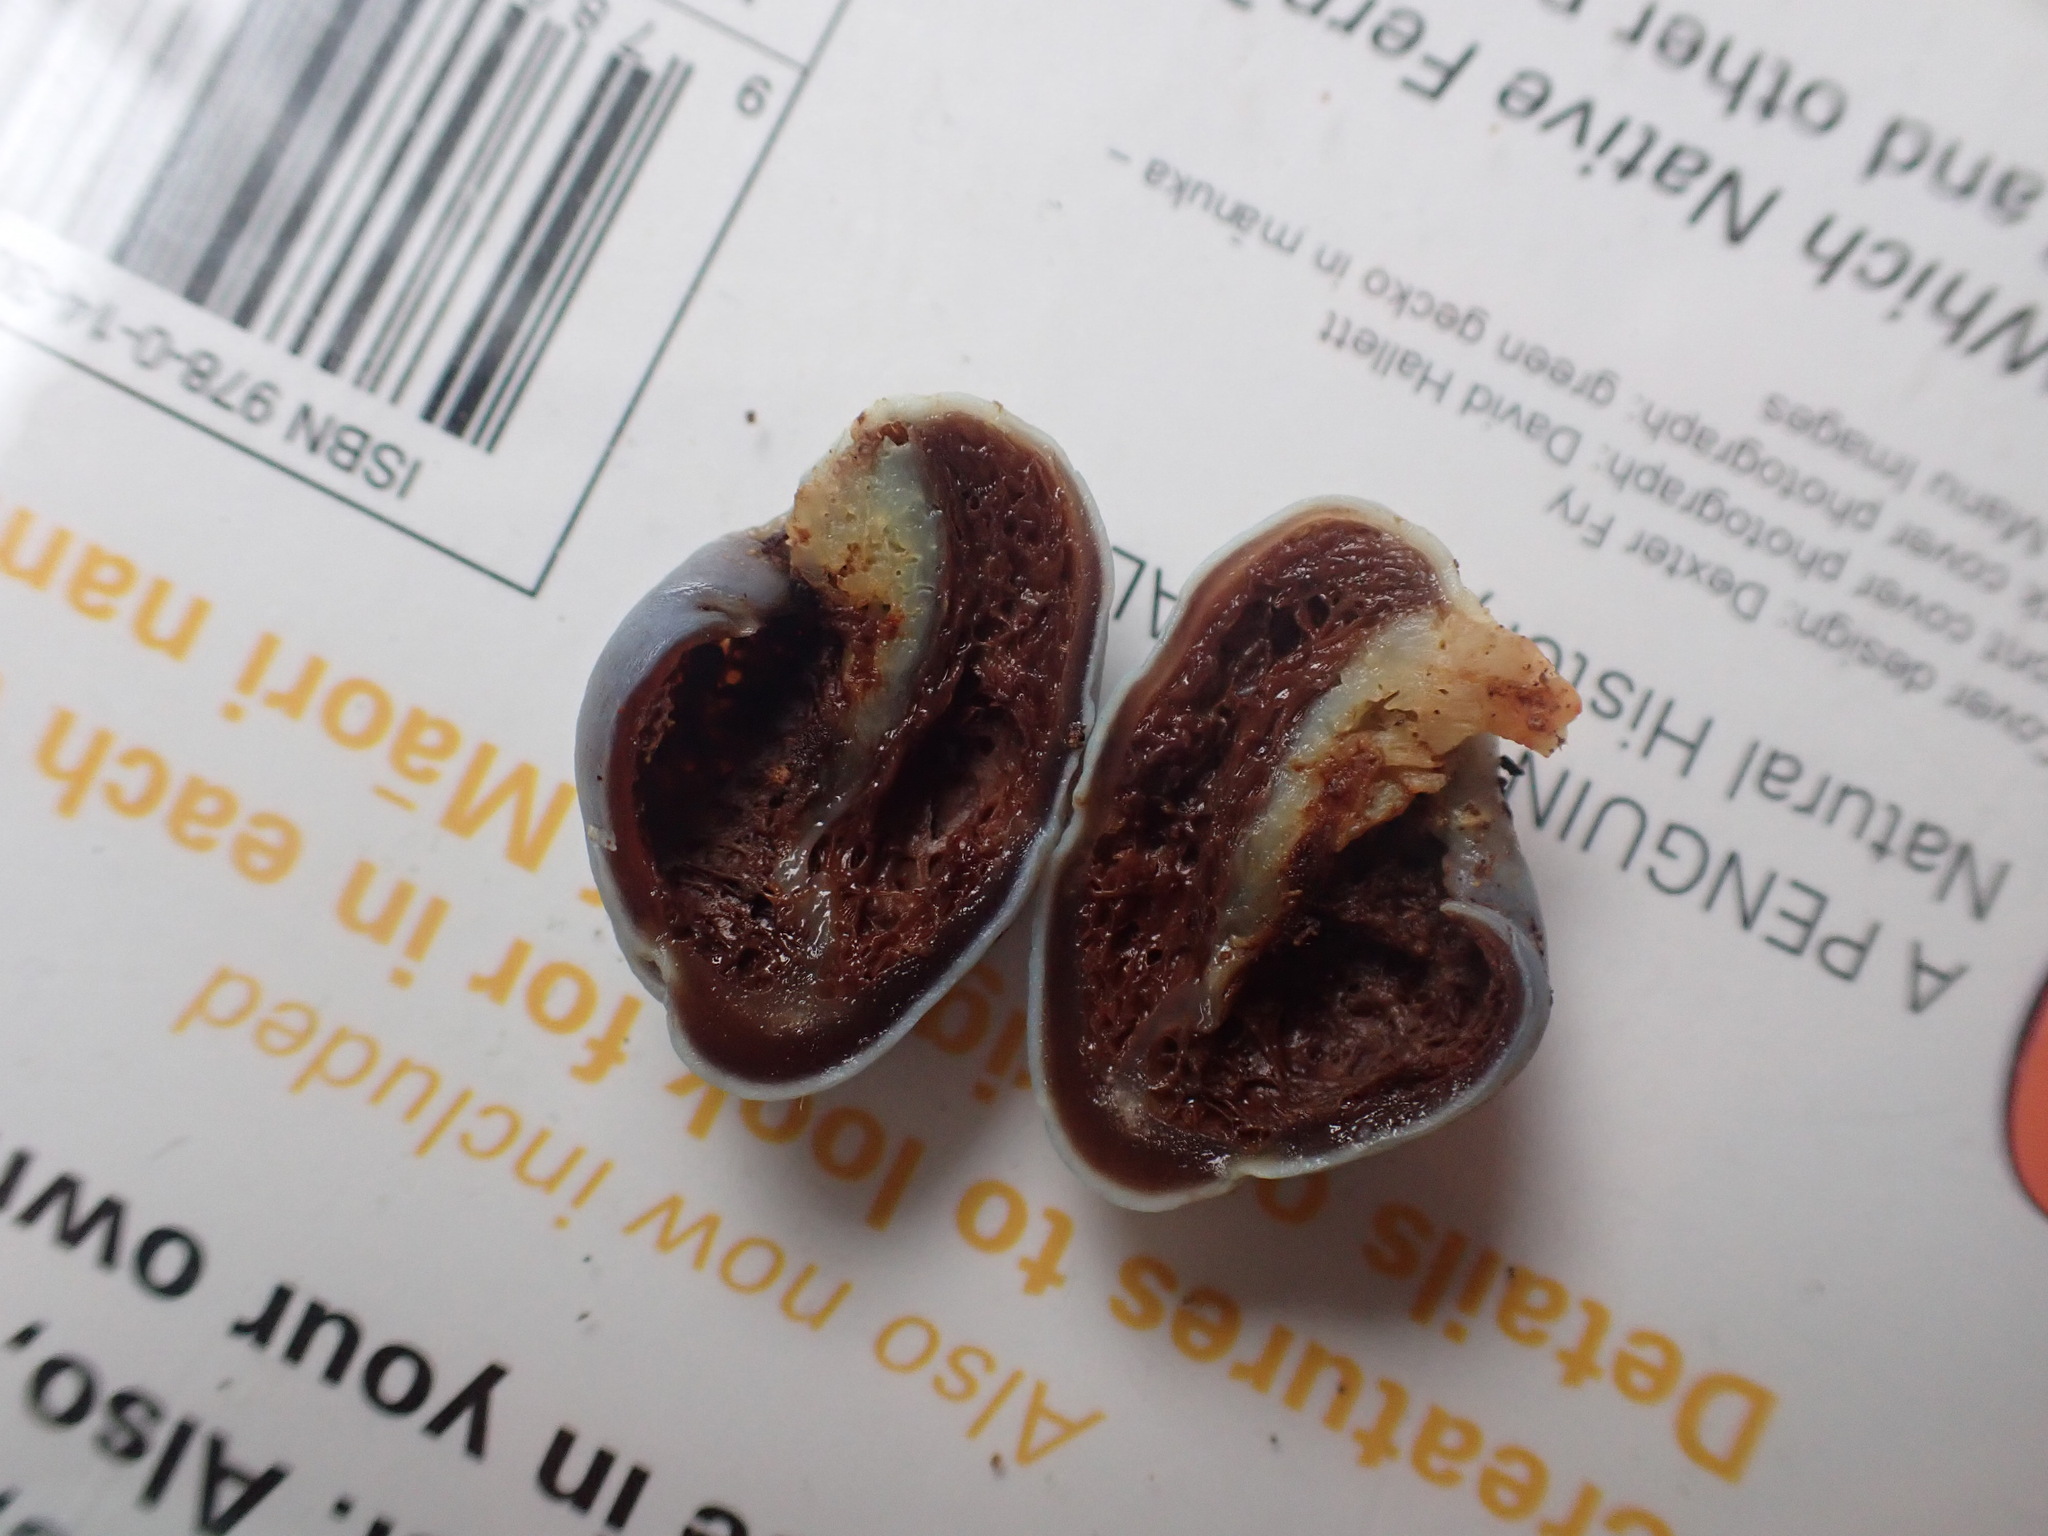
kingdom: Fungi
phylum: Basidiomycota
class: Agaricomycetes
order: Agaricales
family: Agaricaceae
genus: Clavogaster
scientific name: Clavogaster virescens
